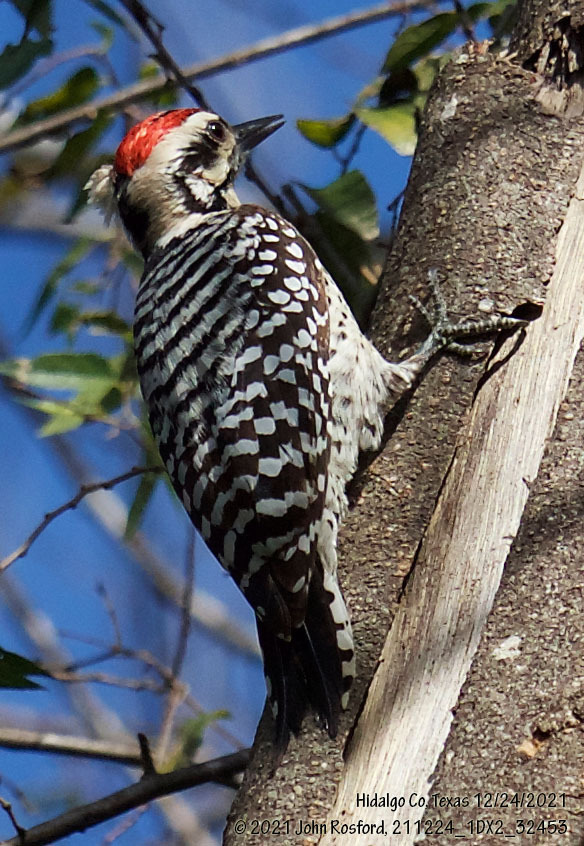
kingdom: Animalia
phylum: Chordata
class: Aves
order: Piciformes
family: Picidae
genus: Dryobates
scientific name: Dryobates scalaris
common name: Ladder-backed woodpecker
